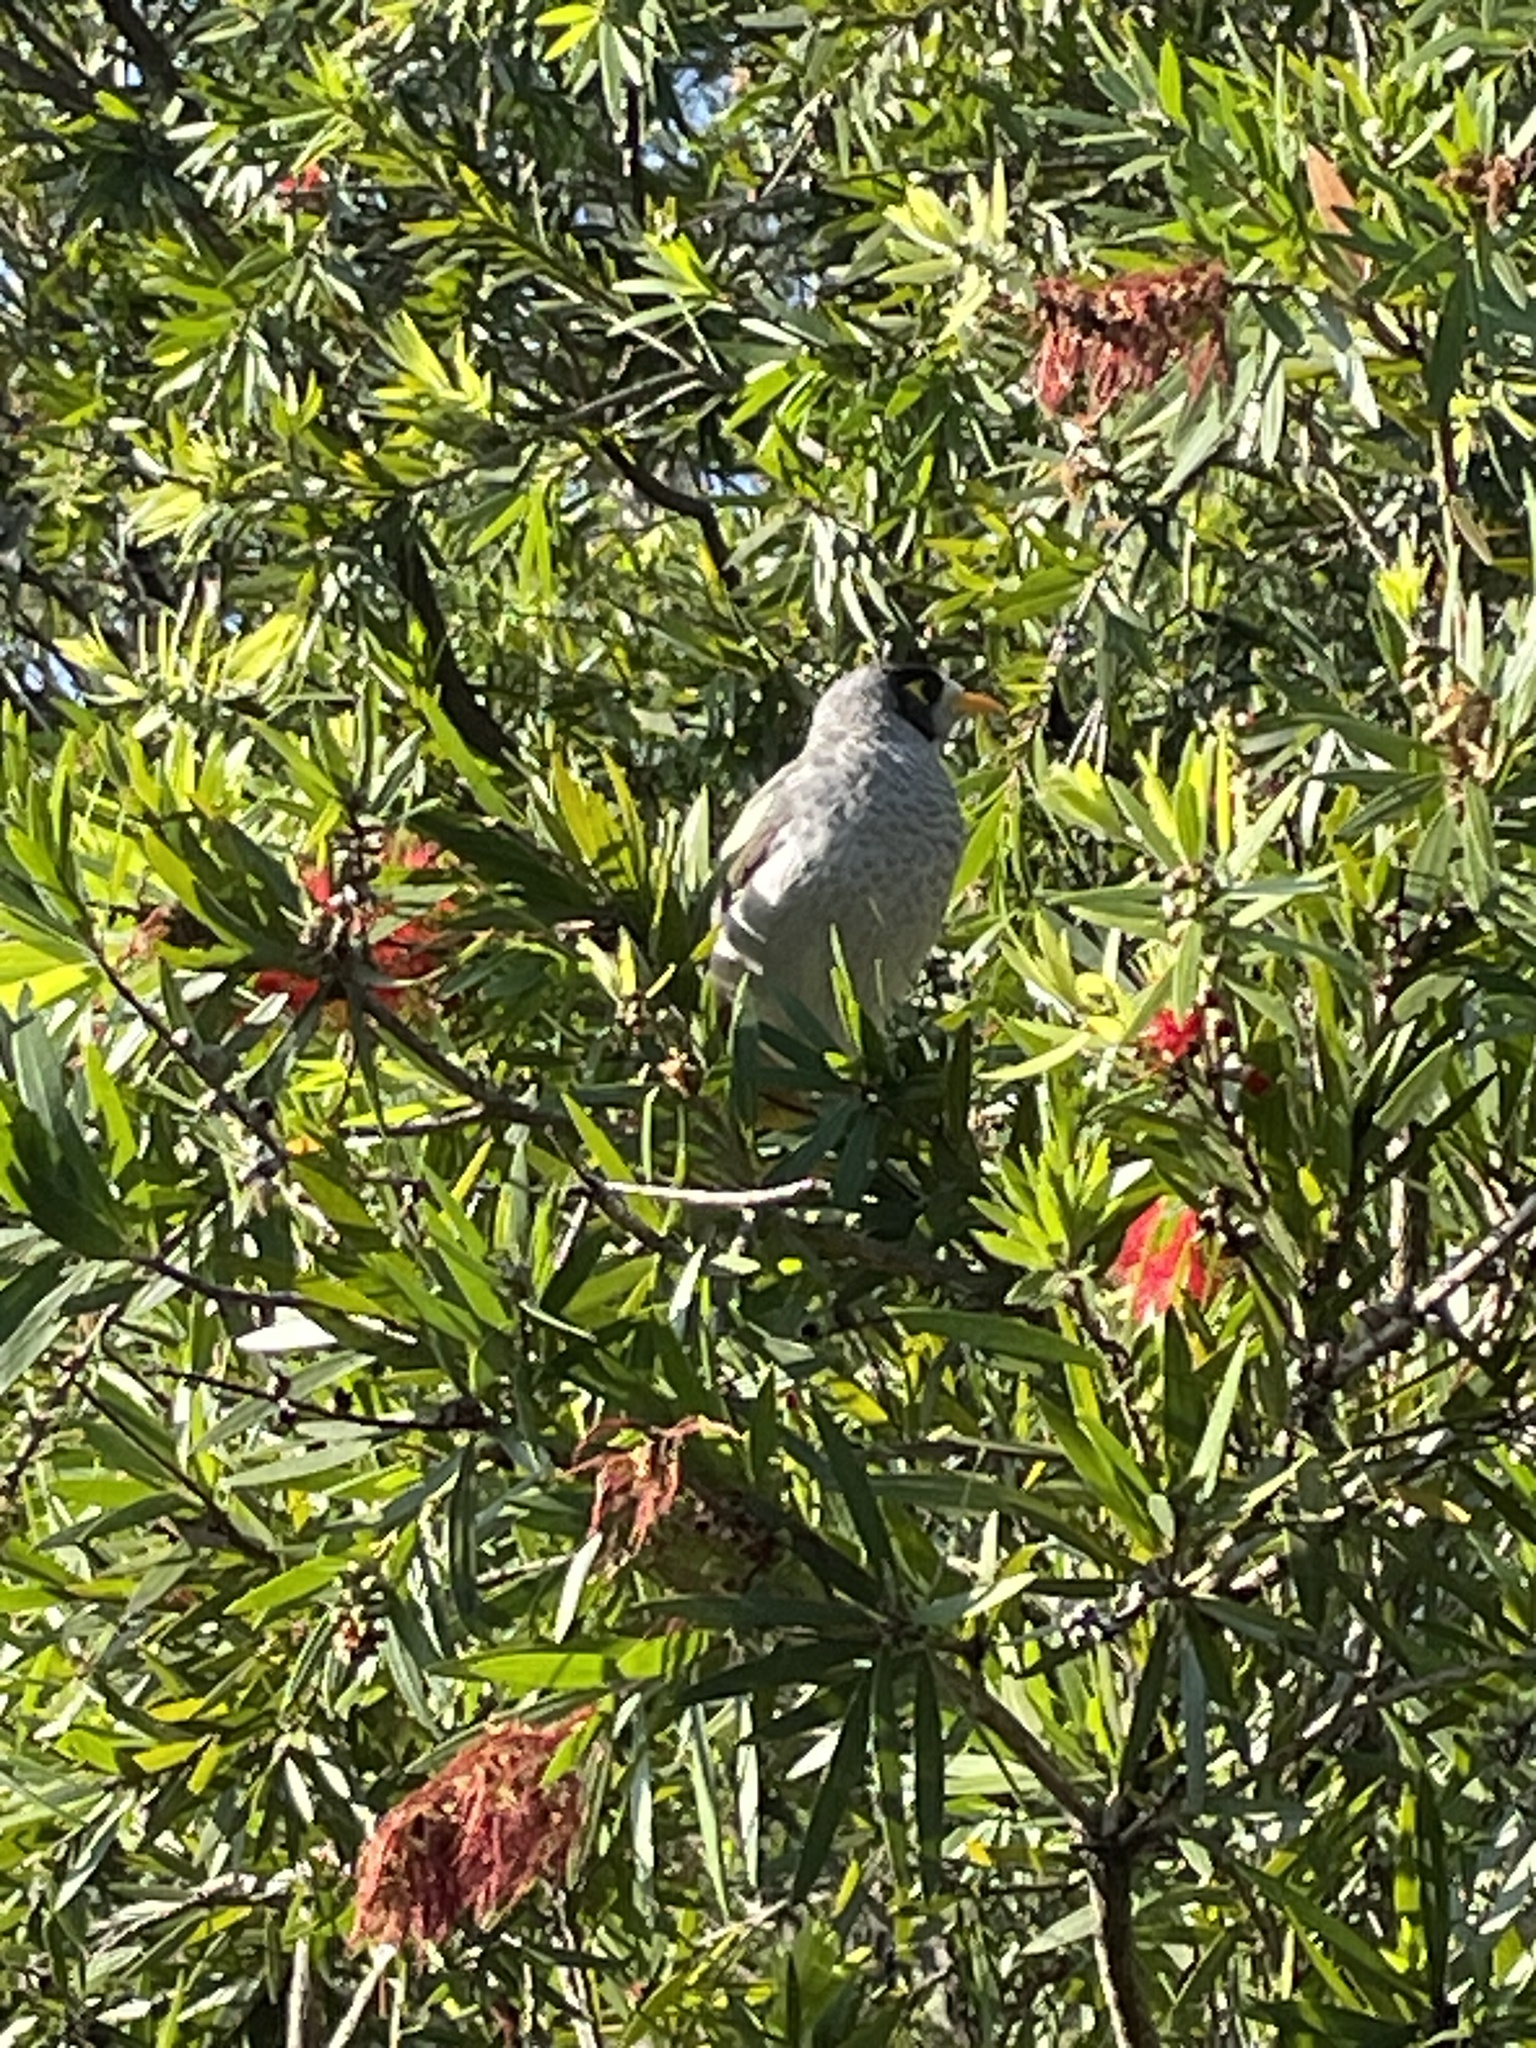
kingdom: Animalia
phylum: Chordata
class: Aves
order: Passeriformes
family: Meliphagidae
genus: Manorina
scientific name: Manorina melanocephala
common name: Noisy miner
